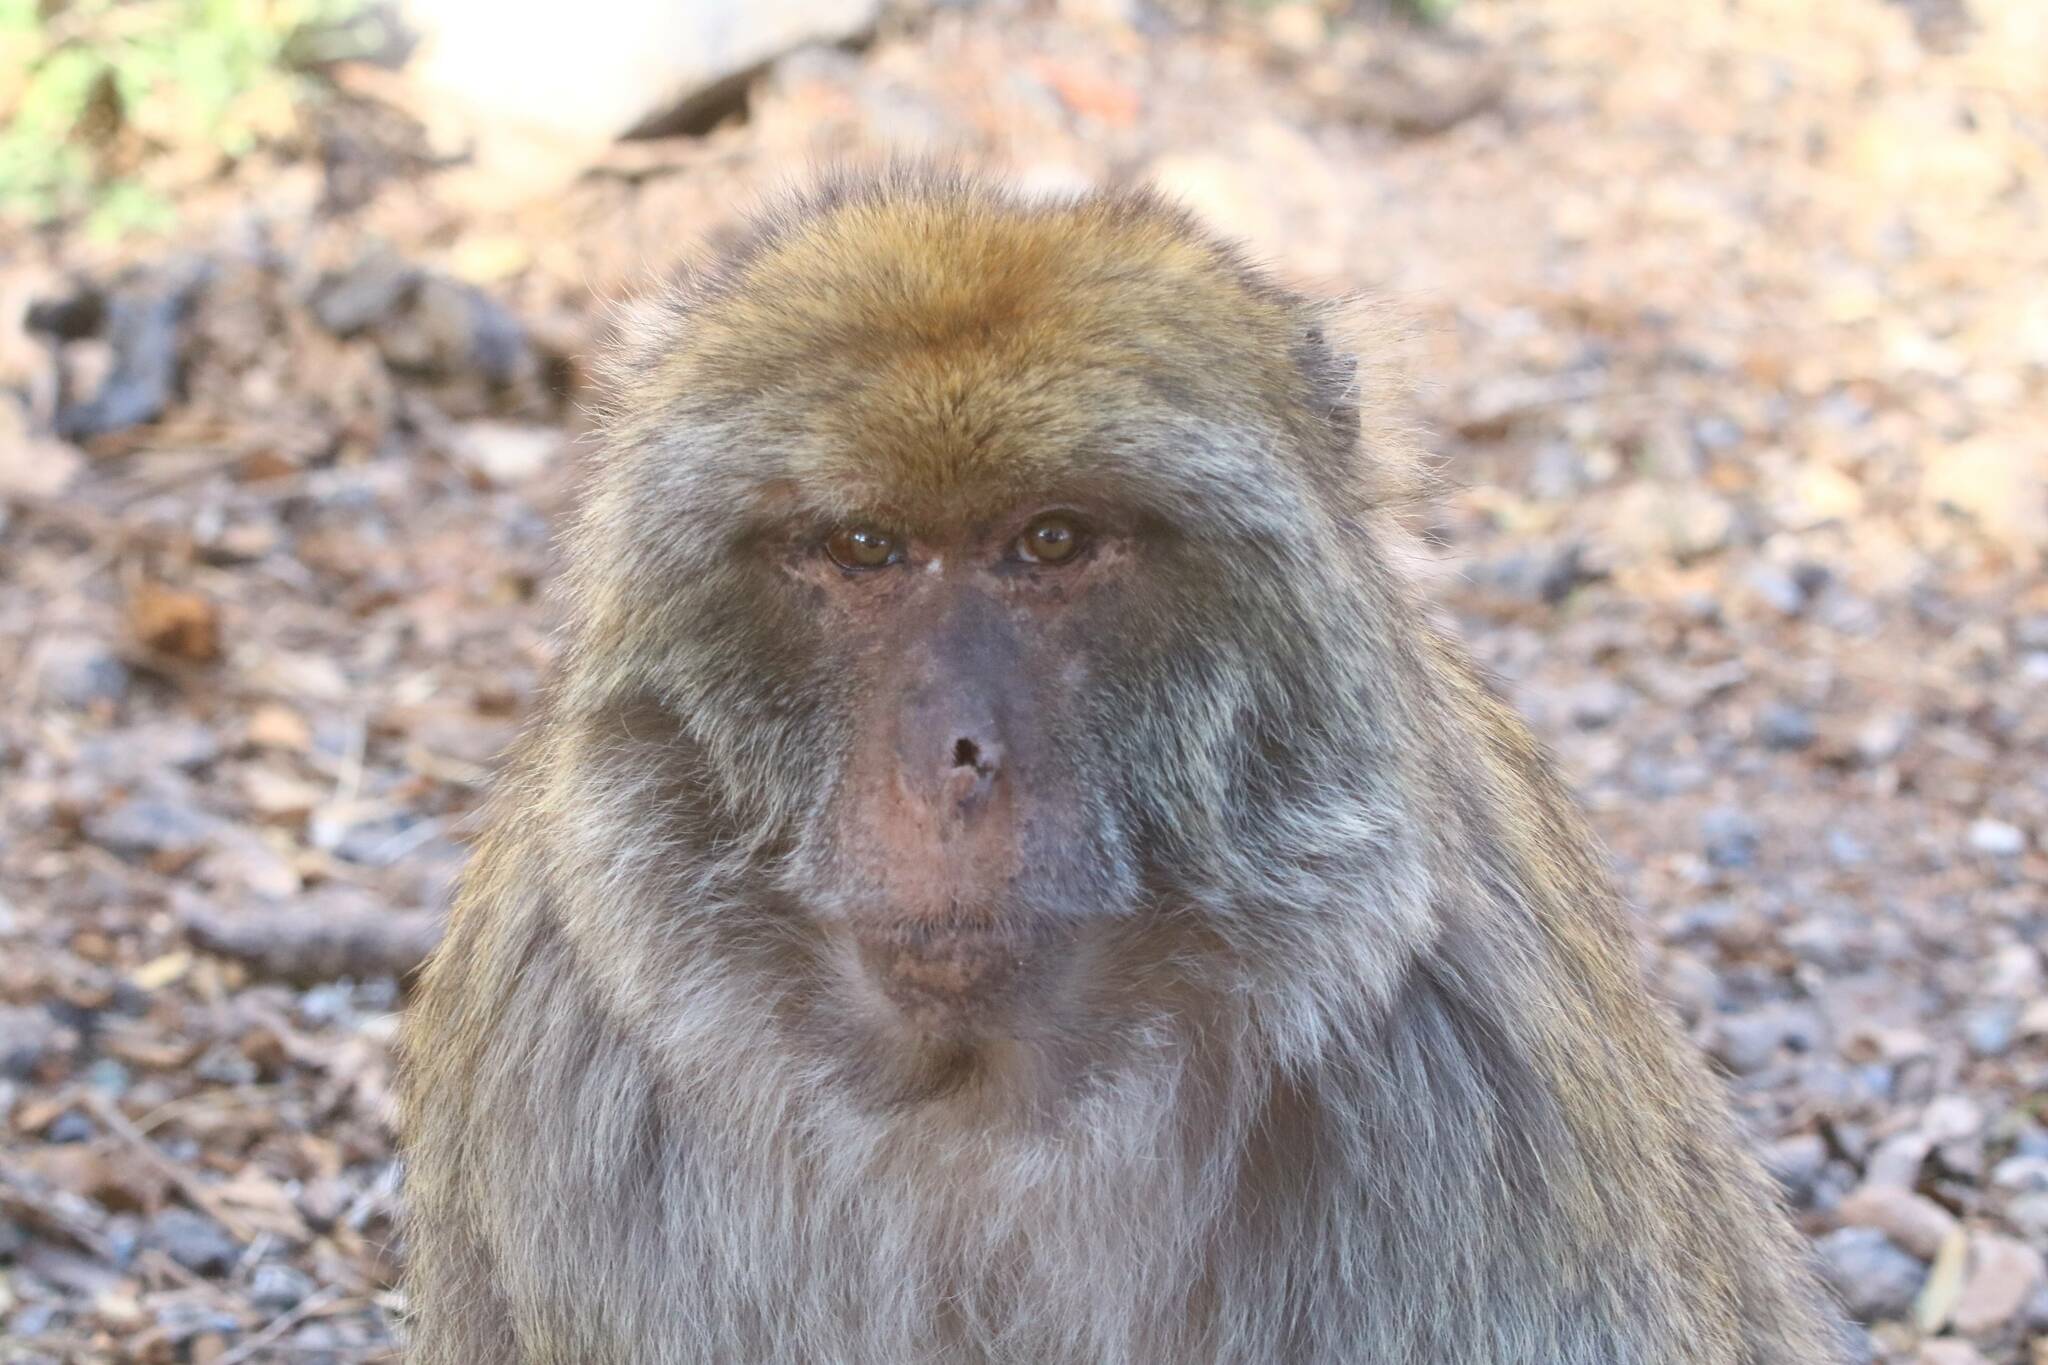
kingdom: Animalia
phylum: Chordata
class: Mammalia
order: Primates
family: Cercopithecidae
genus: Macaca
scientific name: Macaca sylvanus
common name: Barbary macaque
